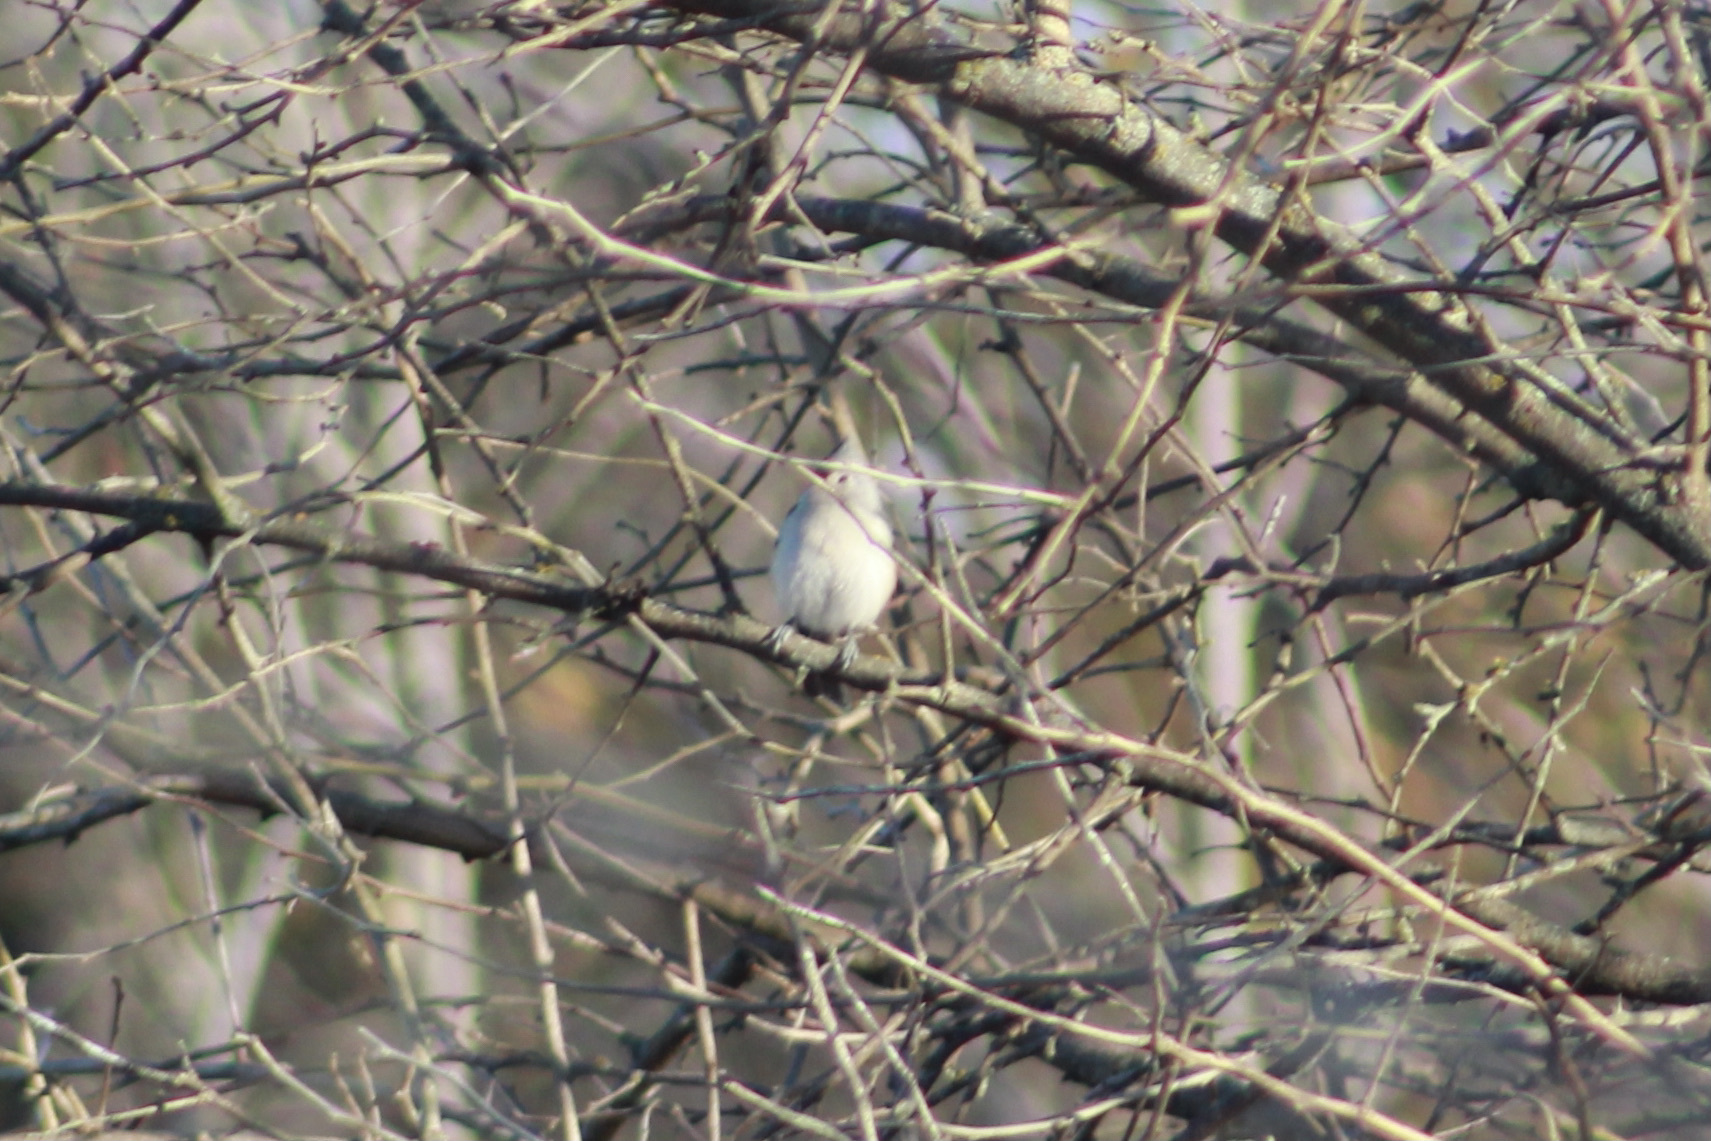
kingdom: Animalia
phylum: Chordata
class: Aves
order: Passeriformes
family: Paridae
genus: Baeolophus
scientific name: Baeolophus bicolor
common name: Tufted titmouse
